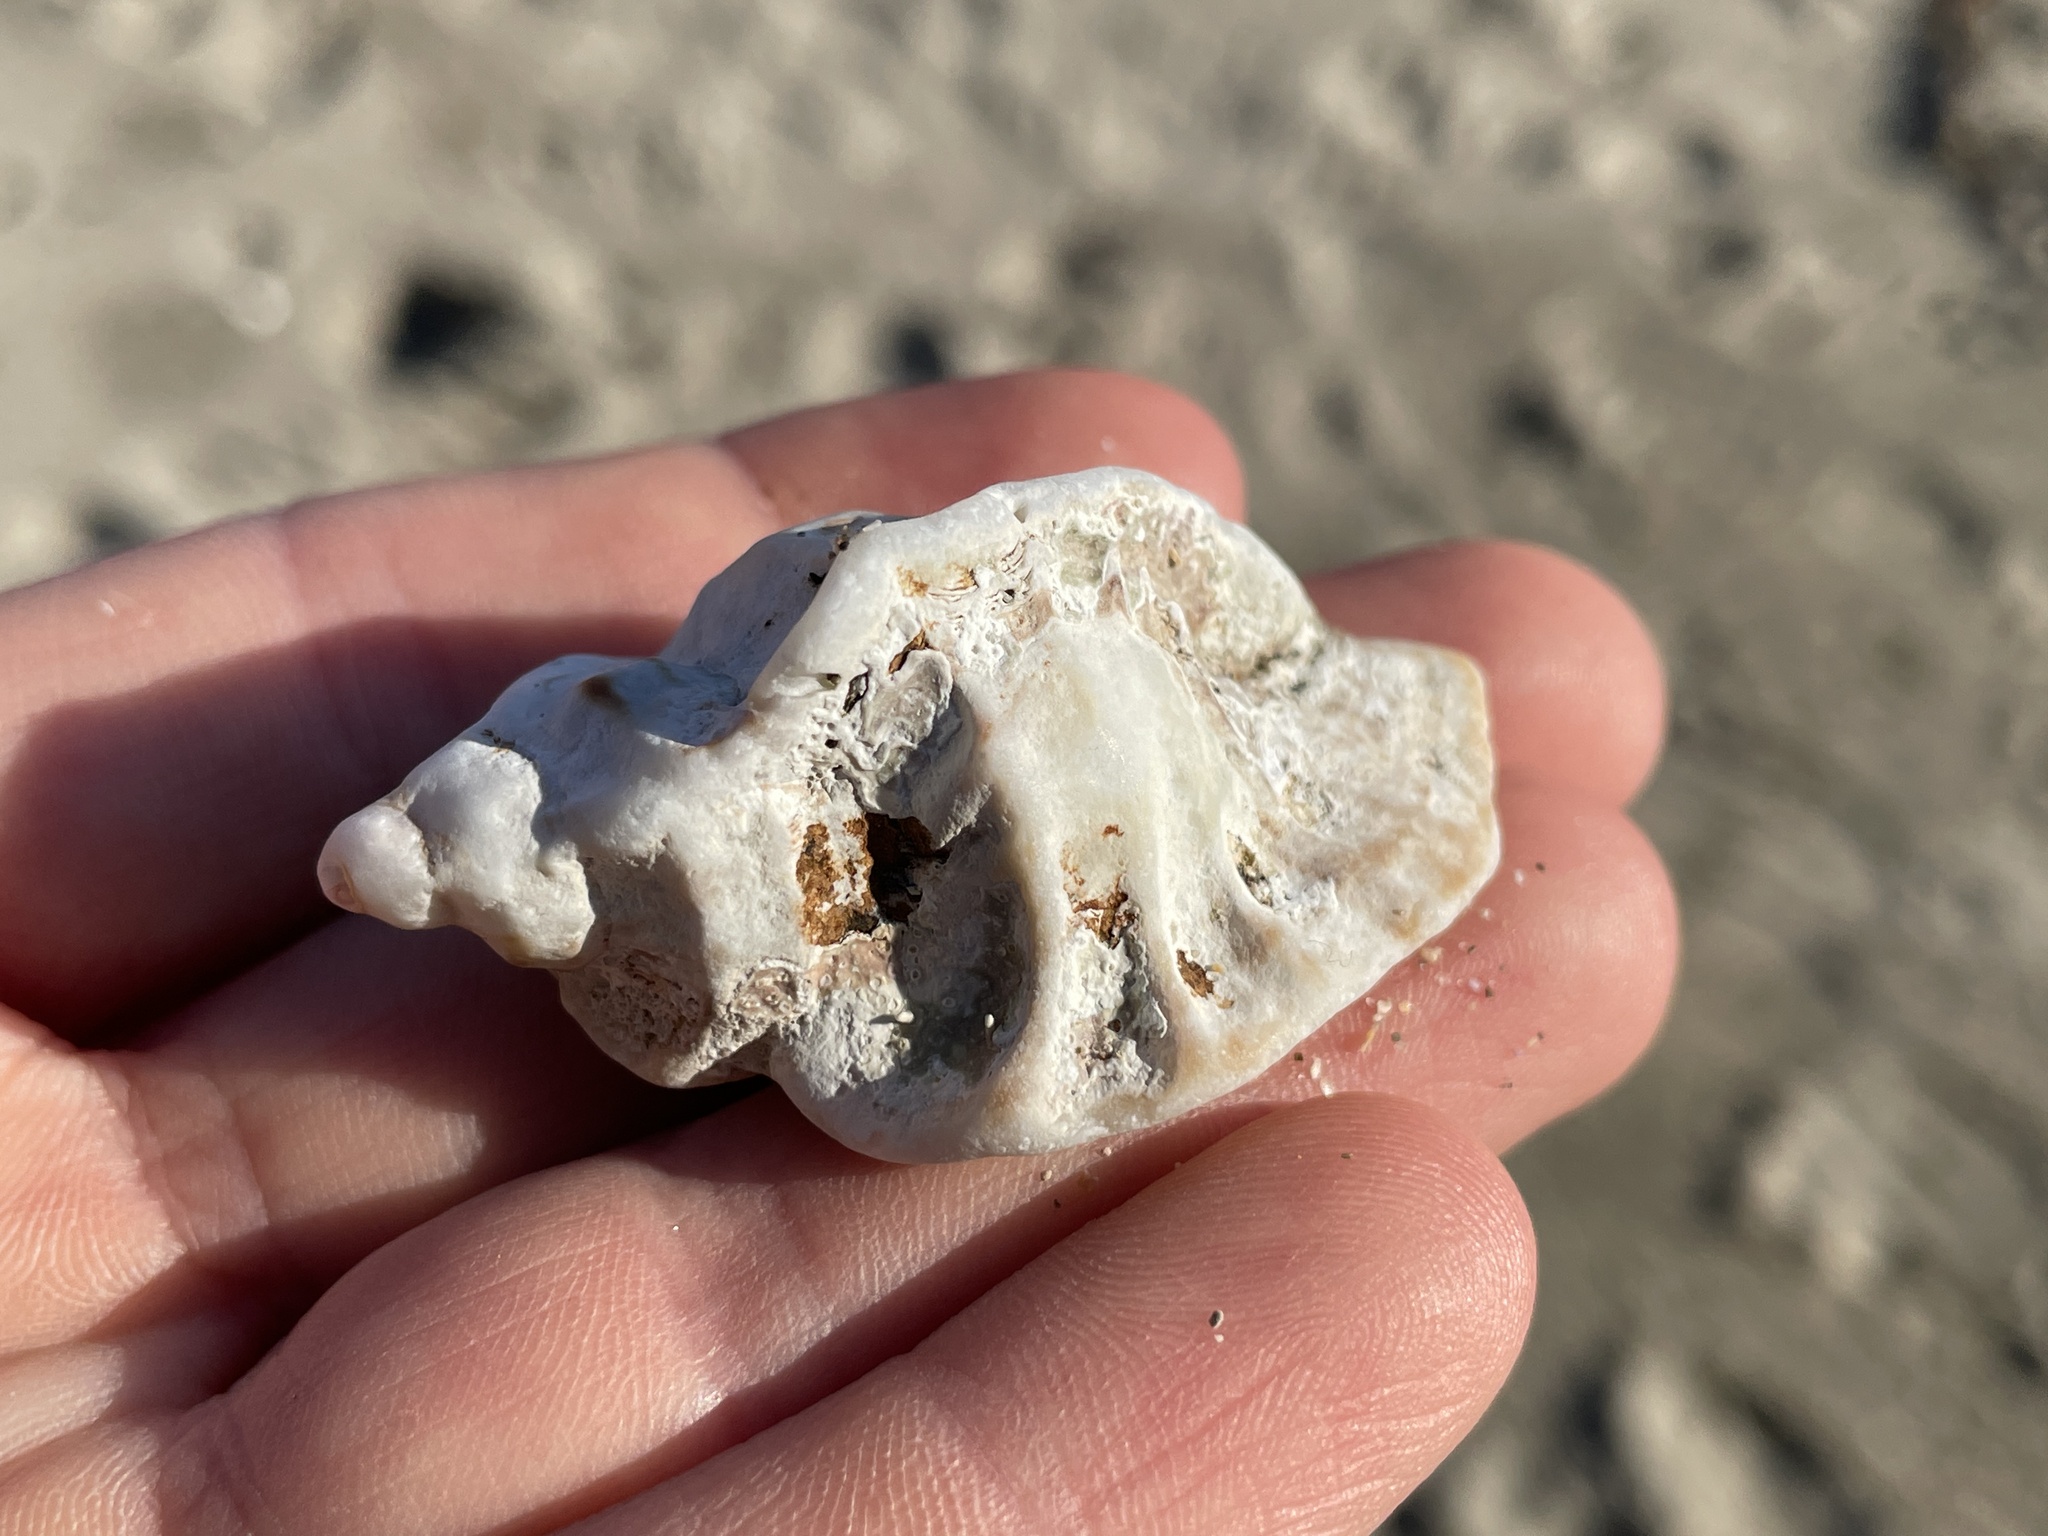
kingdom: Animalia
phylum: Mollusca
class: Gastropoda
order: Neogastropoda
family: Muricidae
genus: Ceratostoma
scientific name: Ceratostoma foliatum
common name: Foliate thorn purpura
